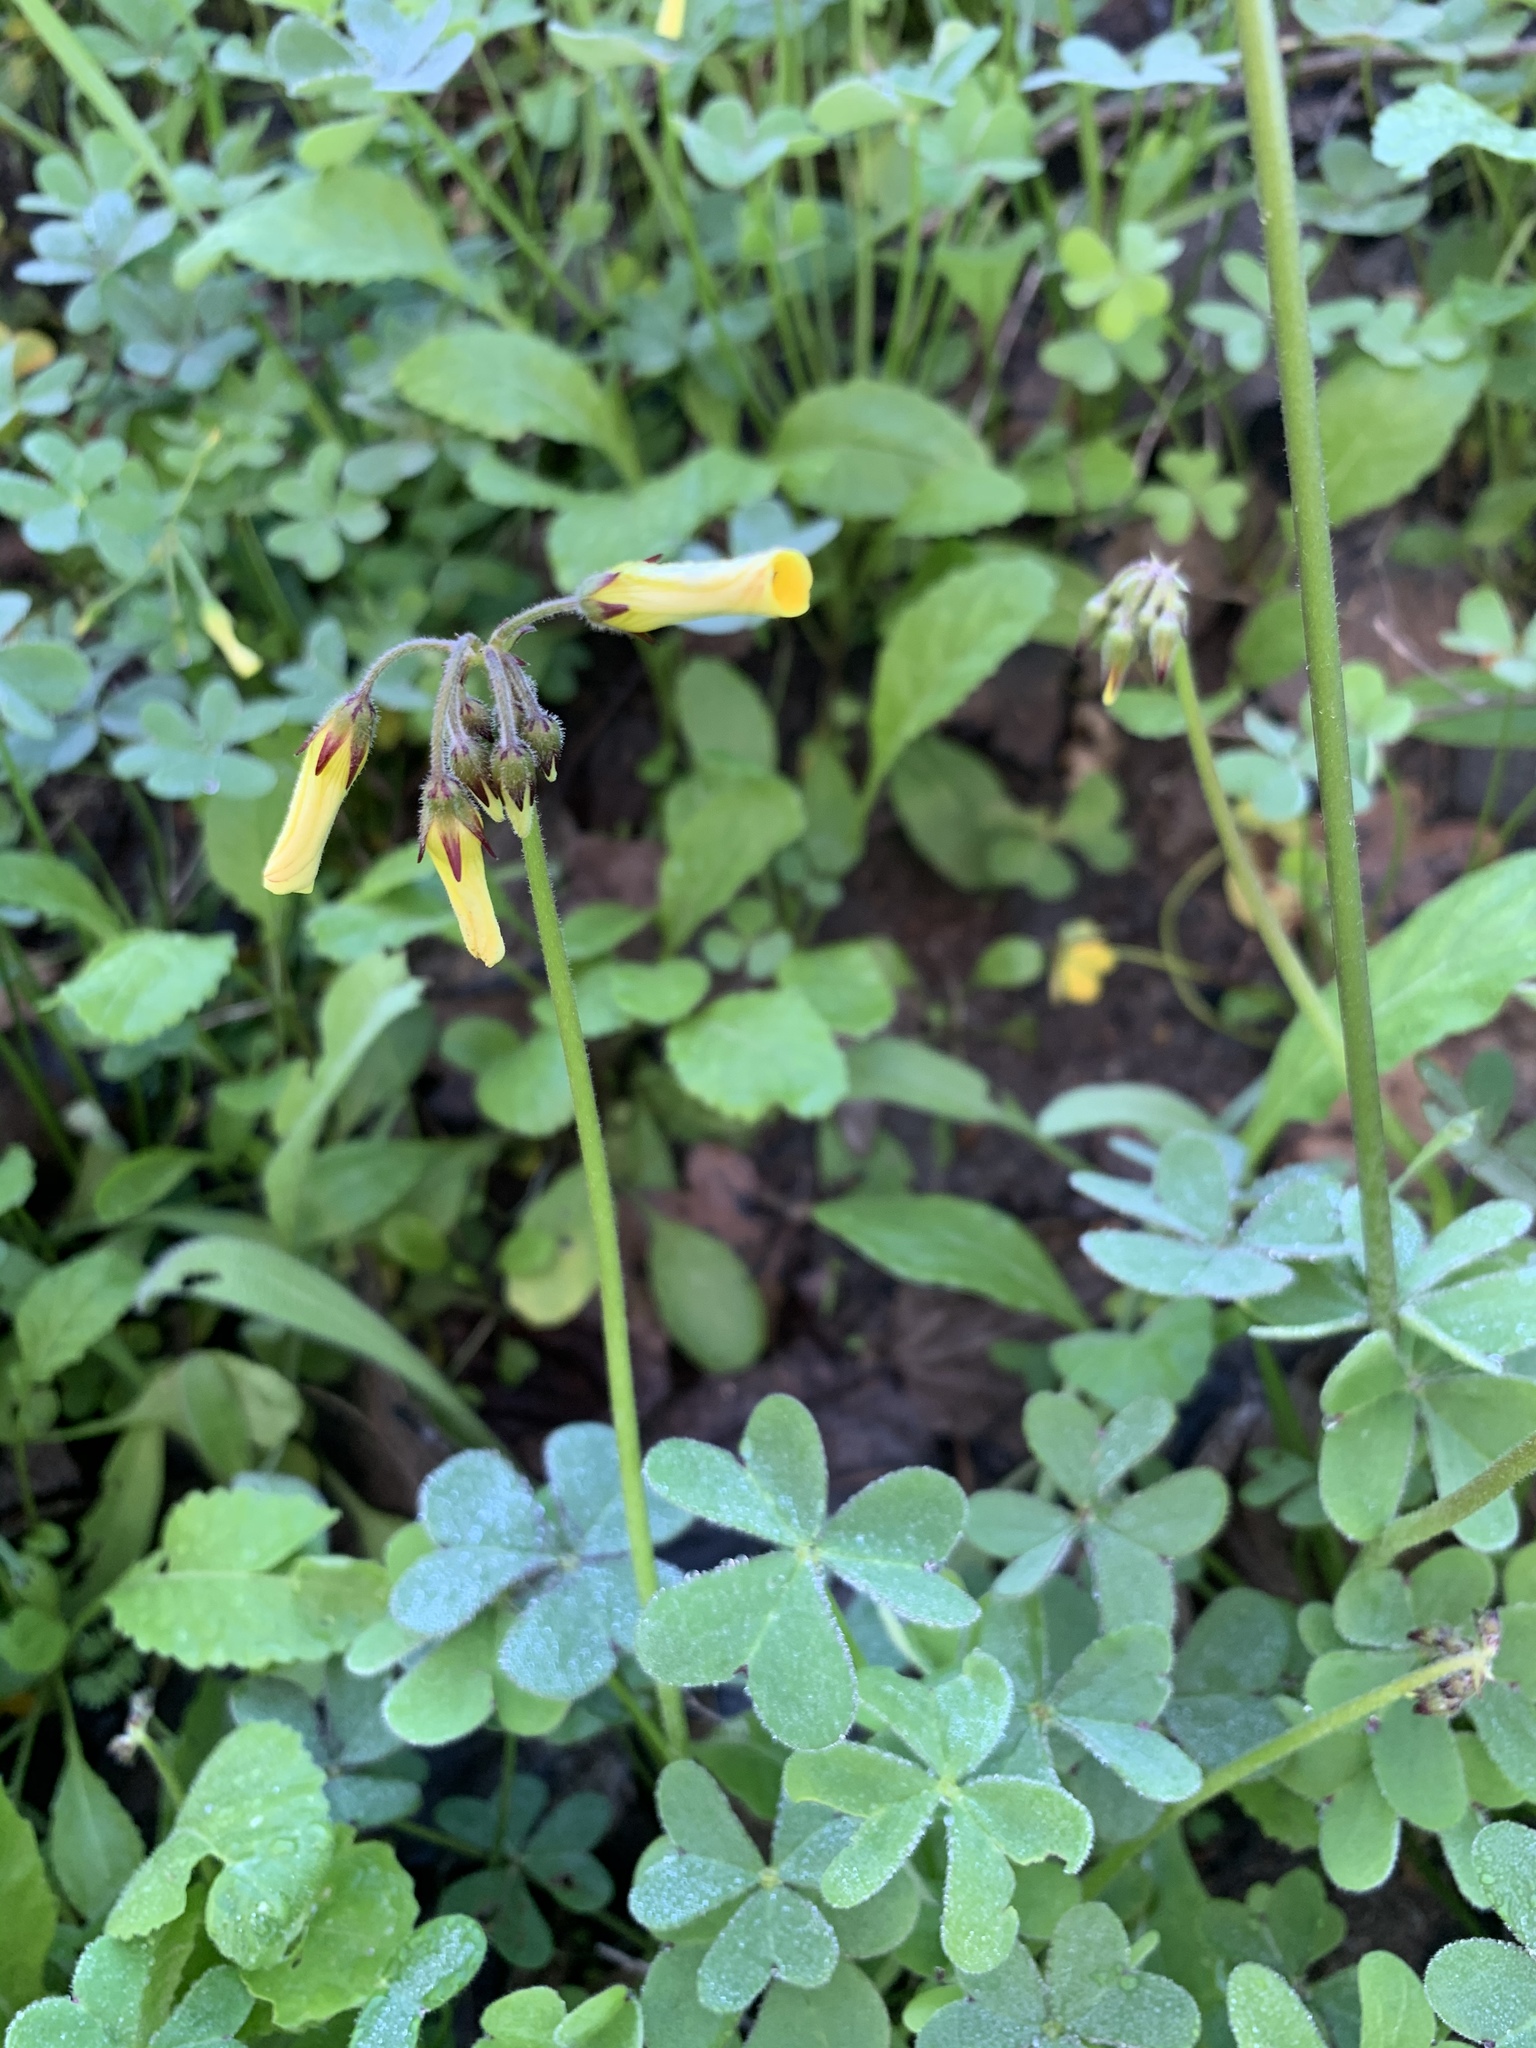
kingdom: Plantae
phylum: Tracheophyta
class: Magnoliopsida
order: Oxalidales
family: Oxalidaceae
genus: Oxalis
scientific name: Oxalis pes-caprae
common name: Bermuda-buttercup
